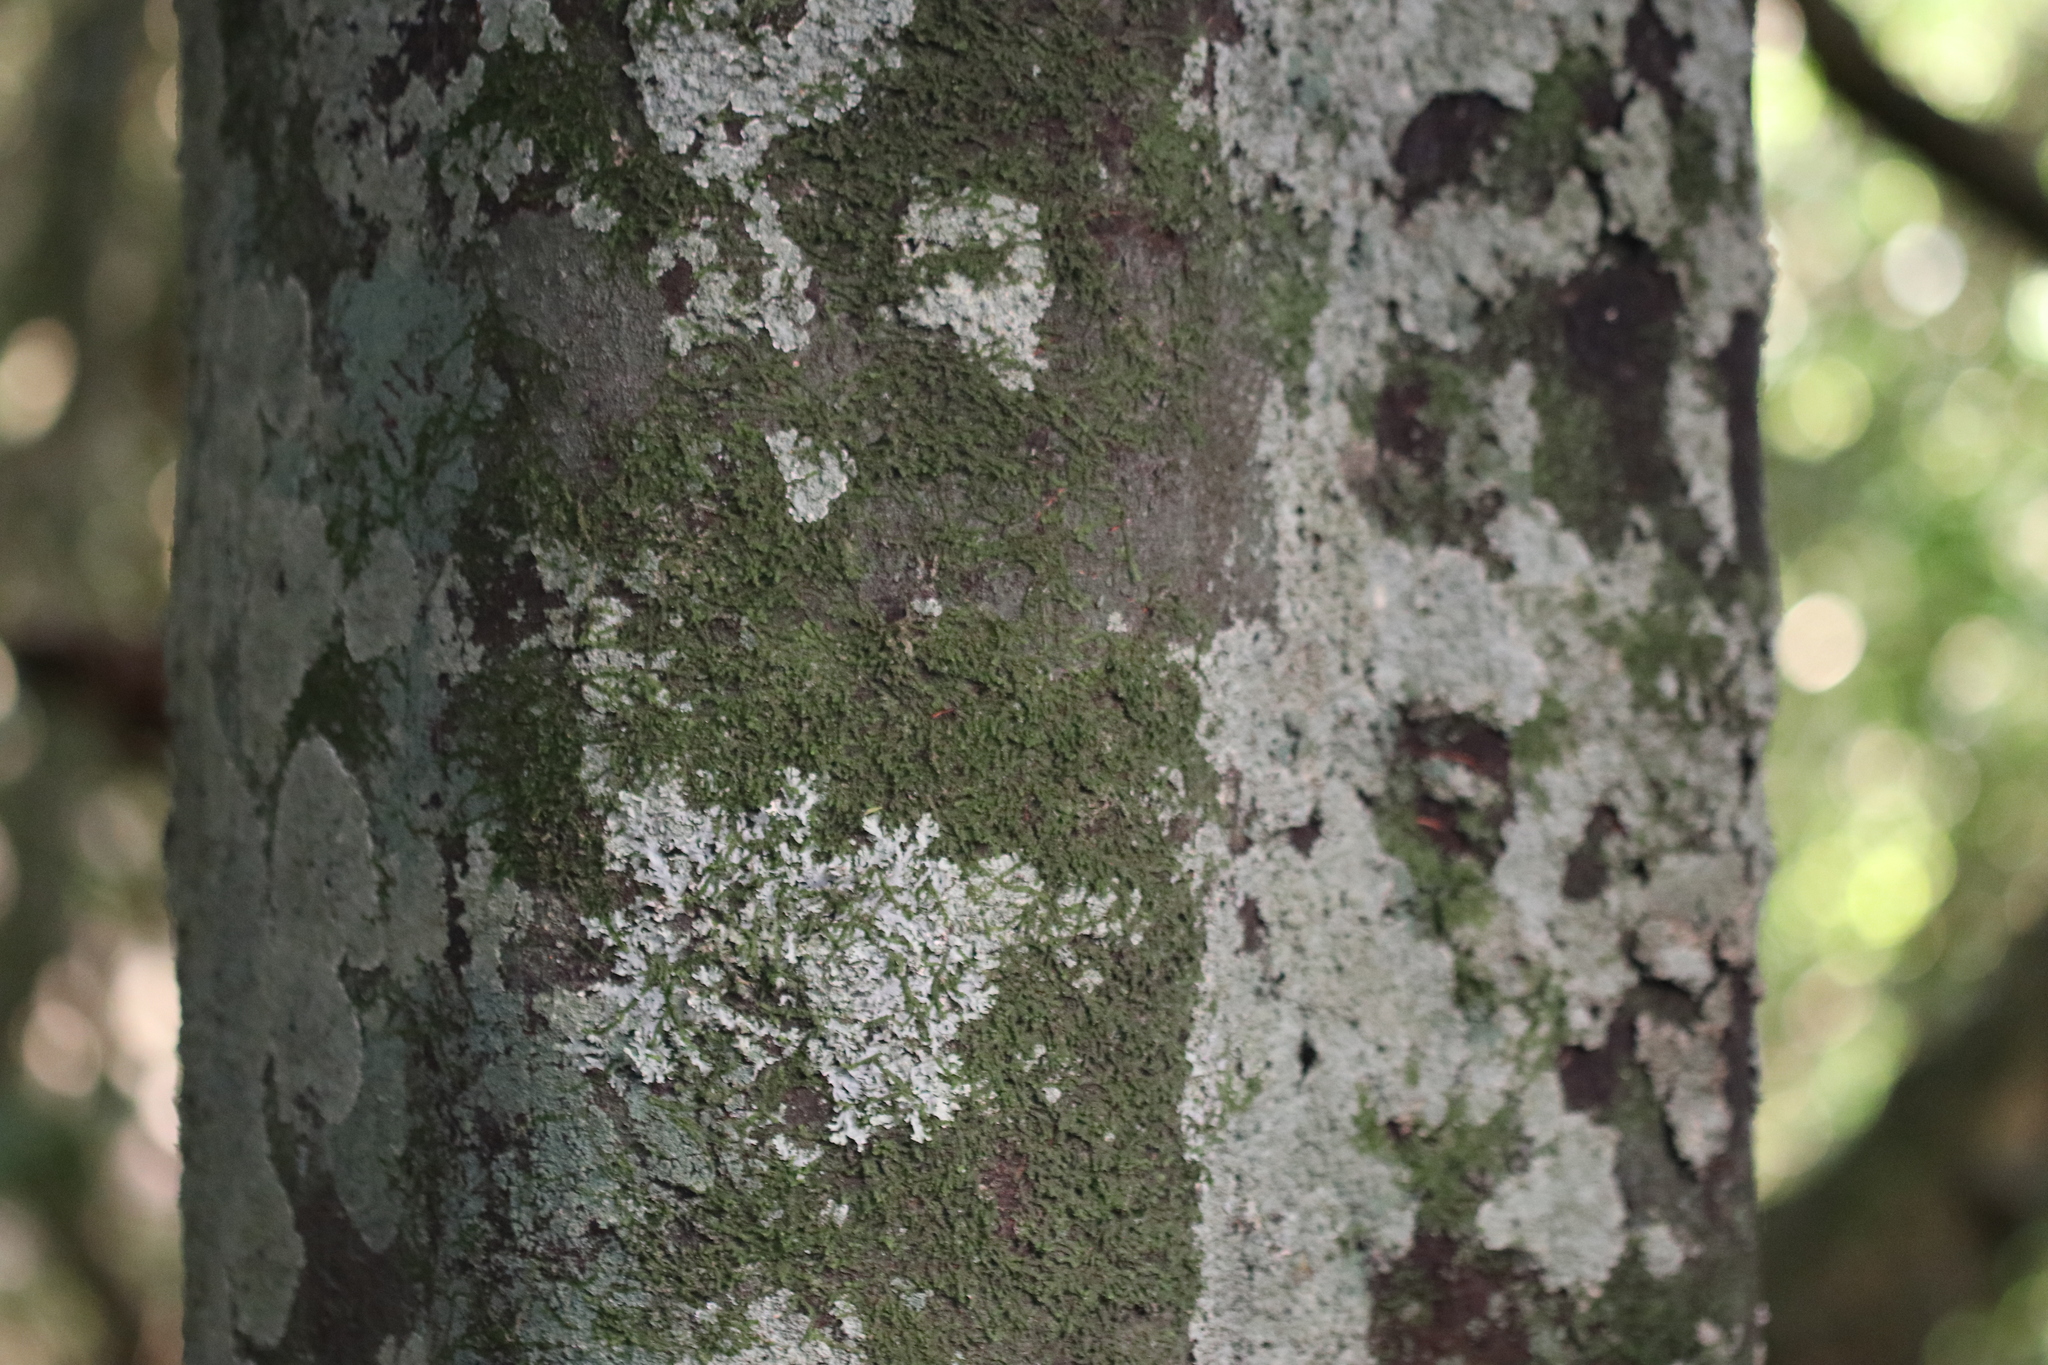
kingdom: Plantae
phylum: Tracheophyta
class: Magnoliopsida
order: Laurales
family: Lauraceae
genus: Beilschmiedia
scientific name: Beilschmiedia tawa
